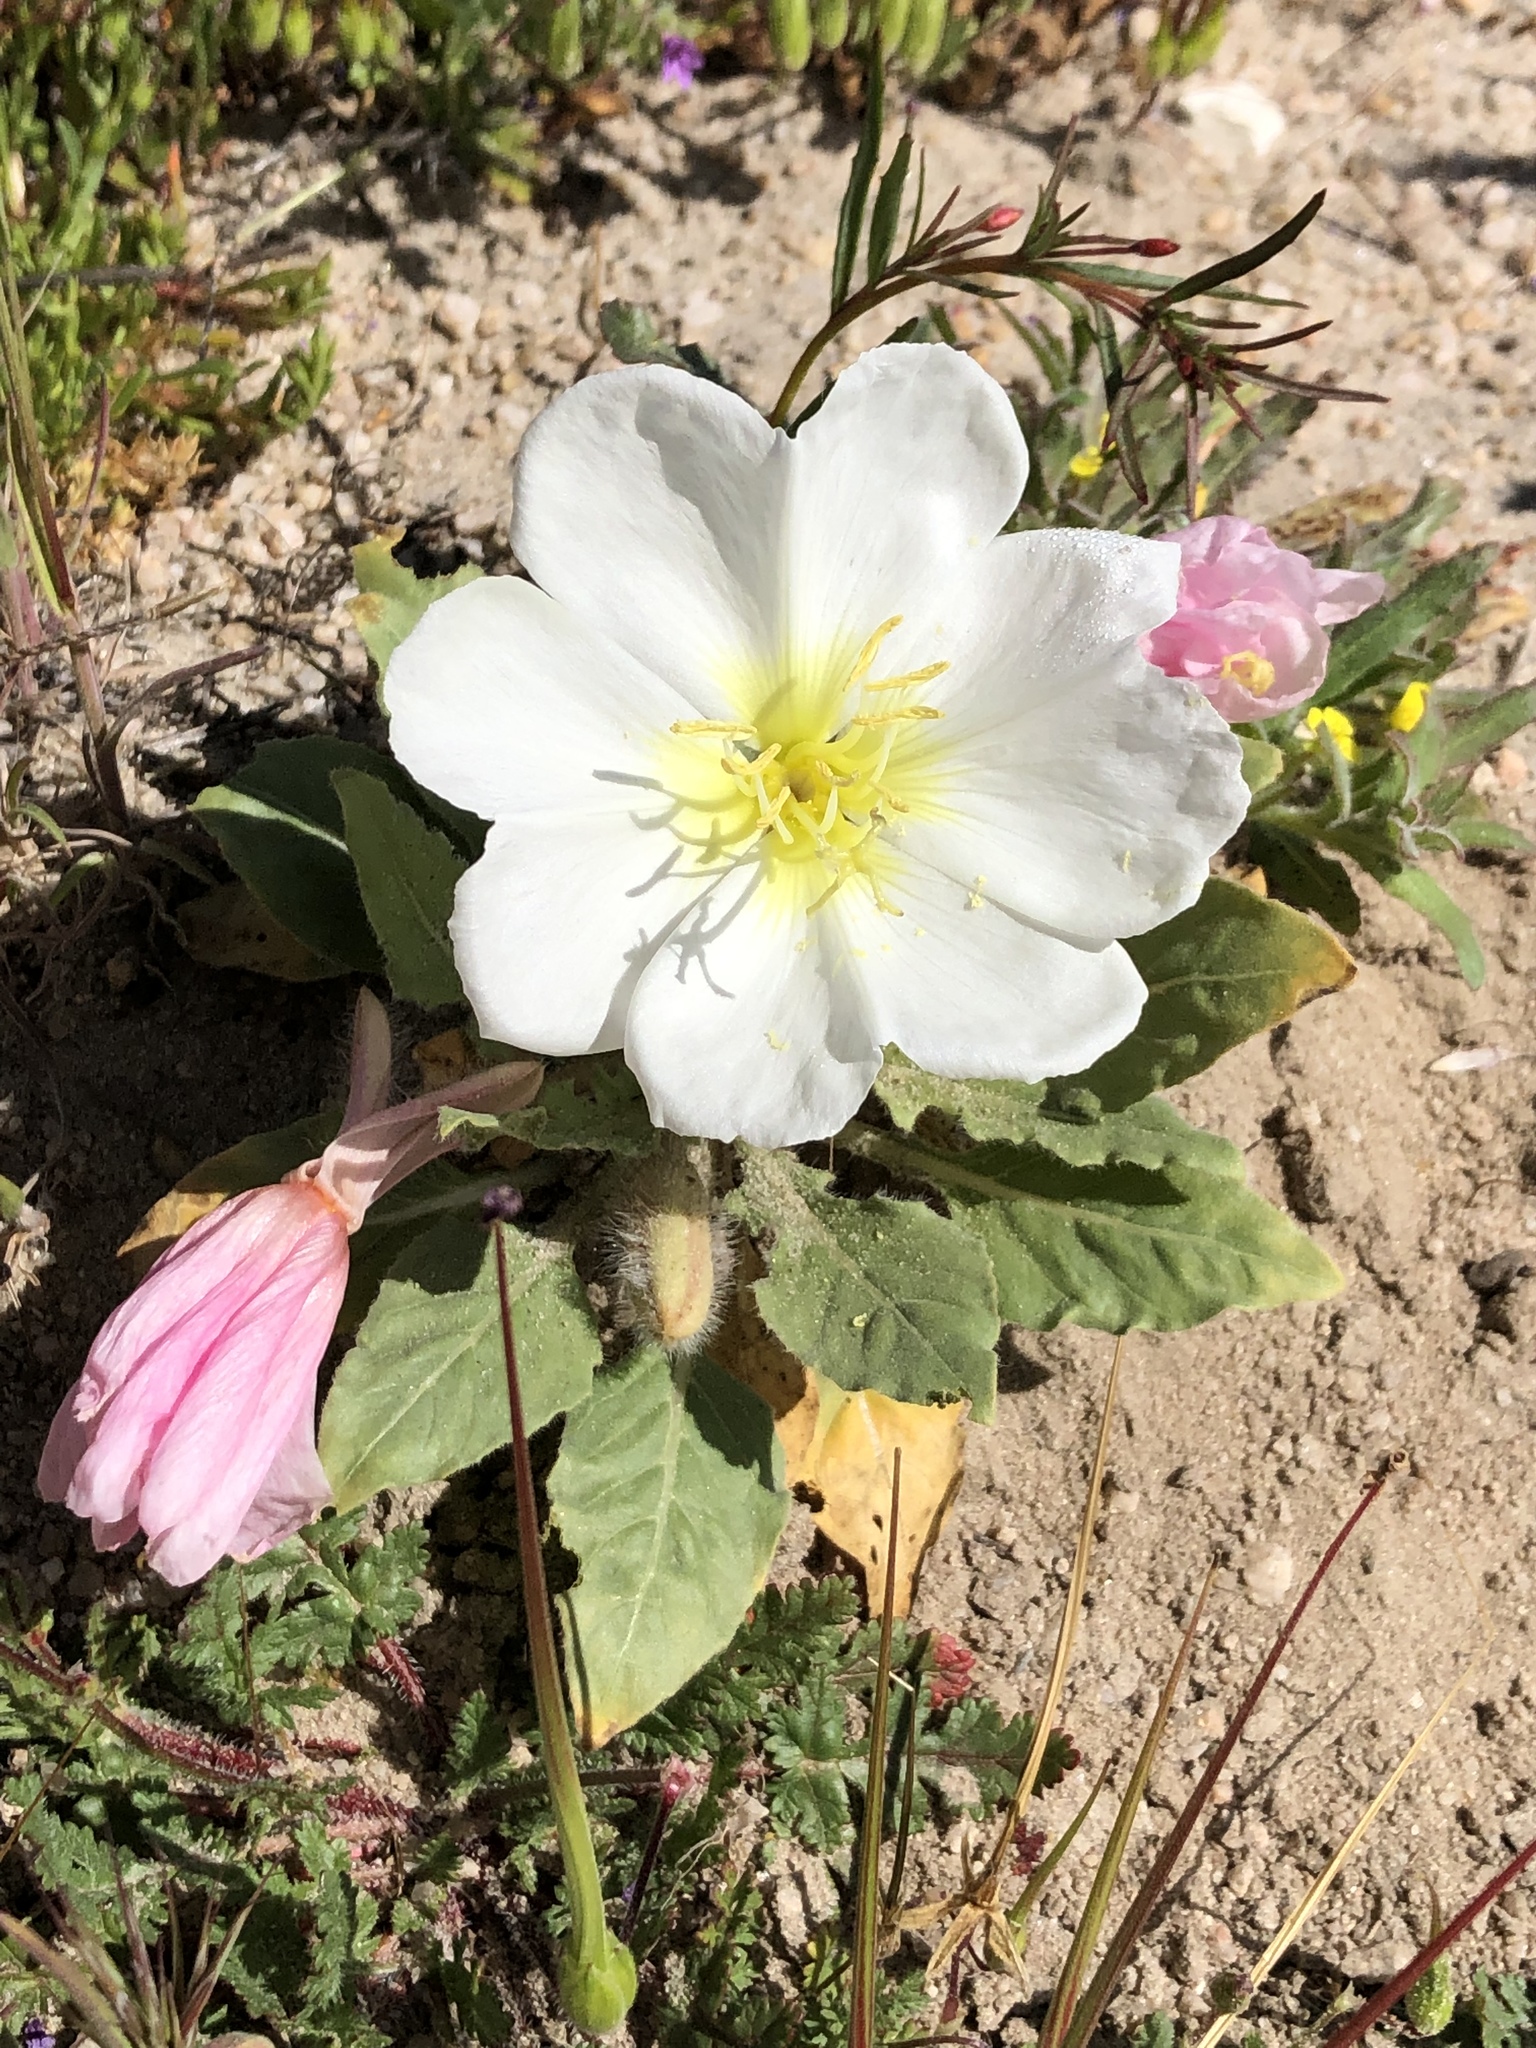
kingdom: Plantae
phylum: Tracheophyta
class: Magnoliopsida
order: Myrtales
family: Onagraceae
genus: Oenothera
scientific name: Oenothera deltoides
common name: Basket evening-primrose
